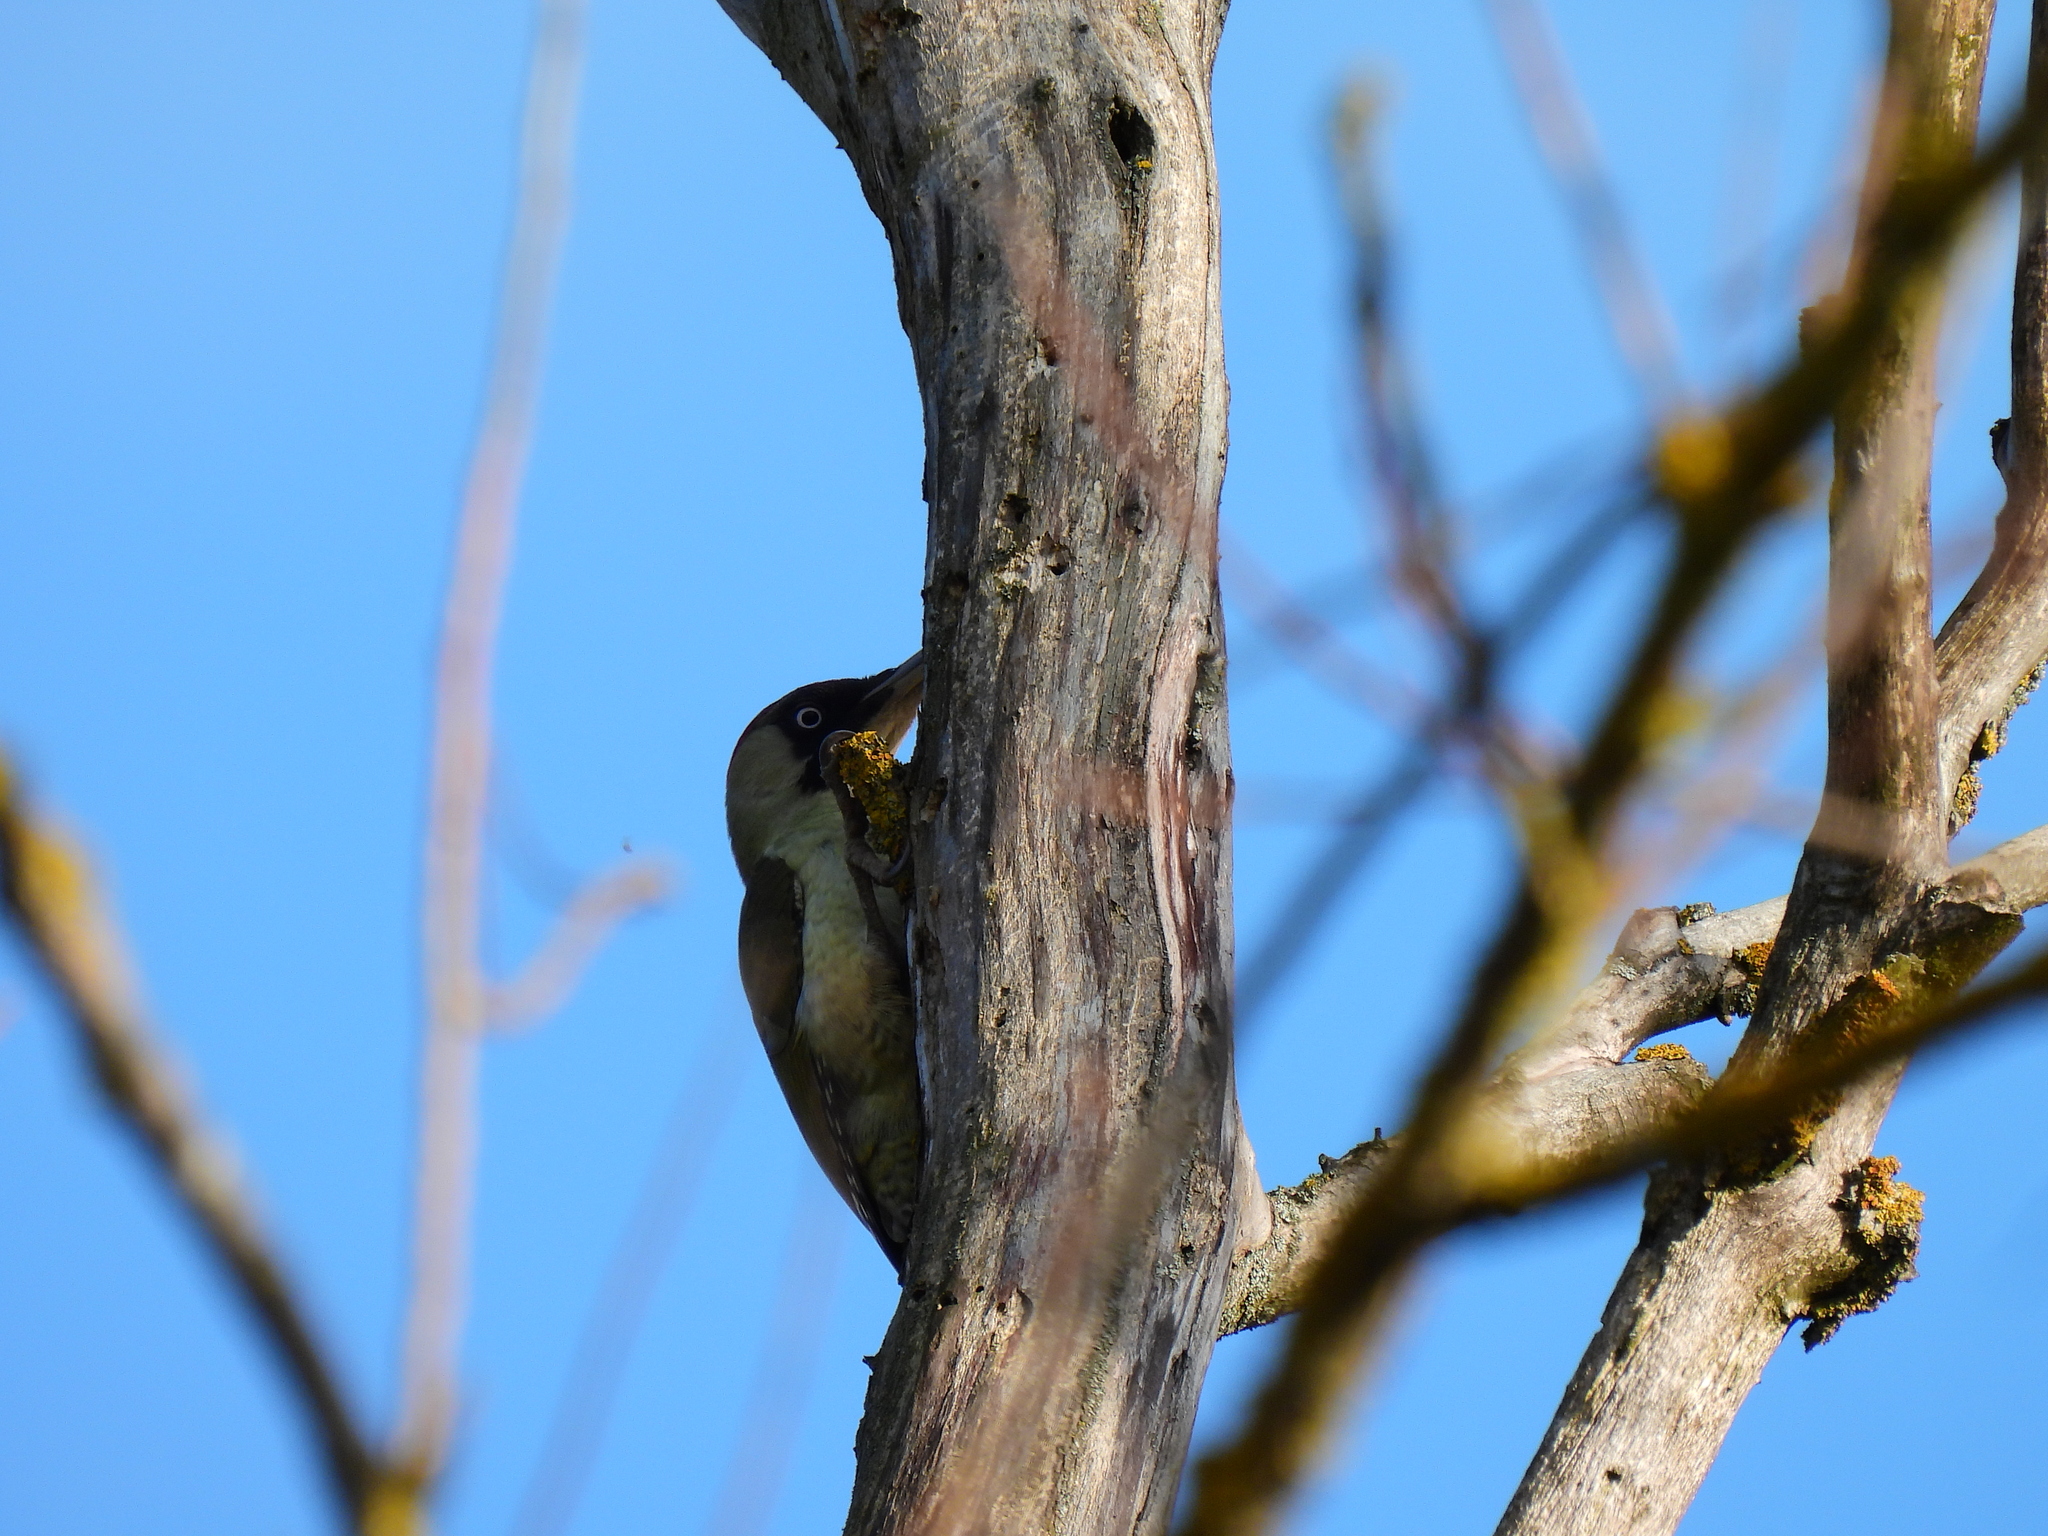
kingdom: Animalia
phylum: Chordata
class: Aves
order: Piciformes
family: Picidae
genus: Picus
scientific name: Picus viridis
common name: European green woodpecker
